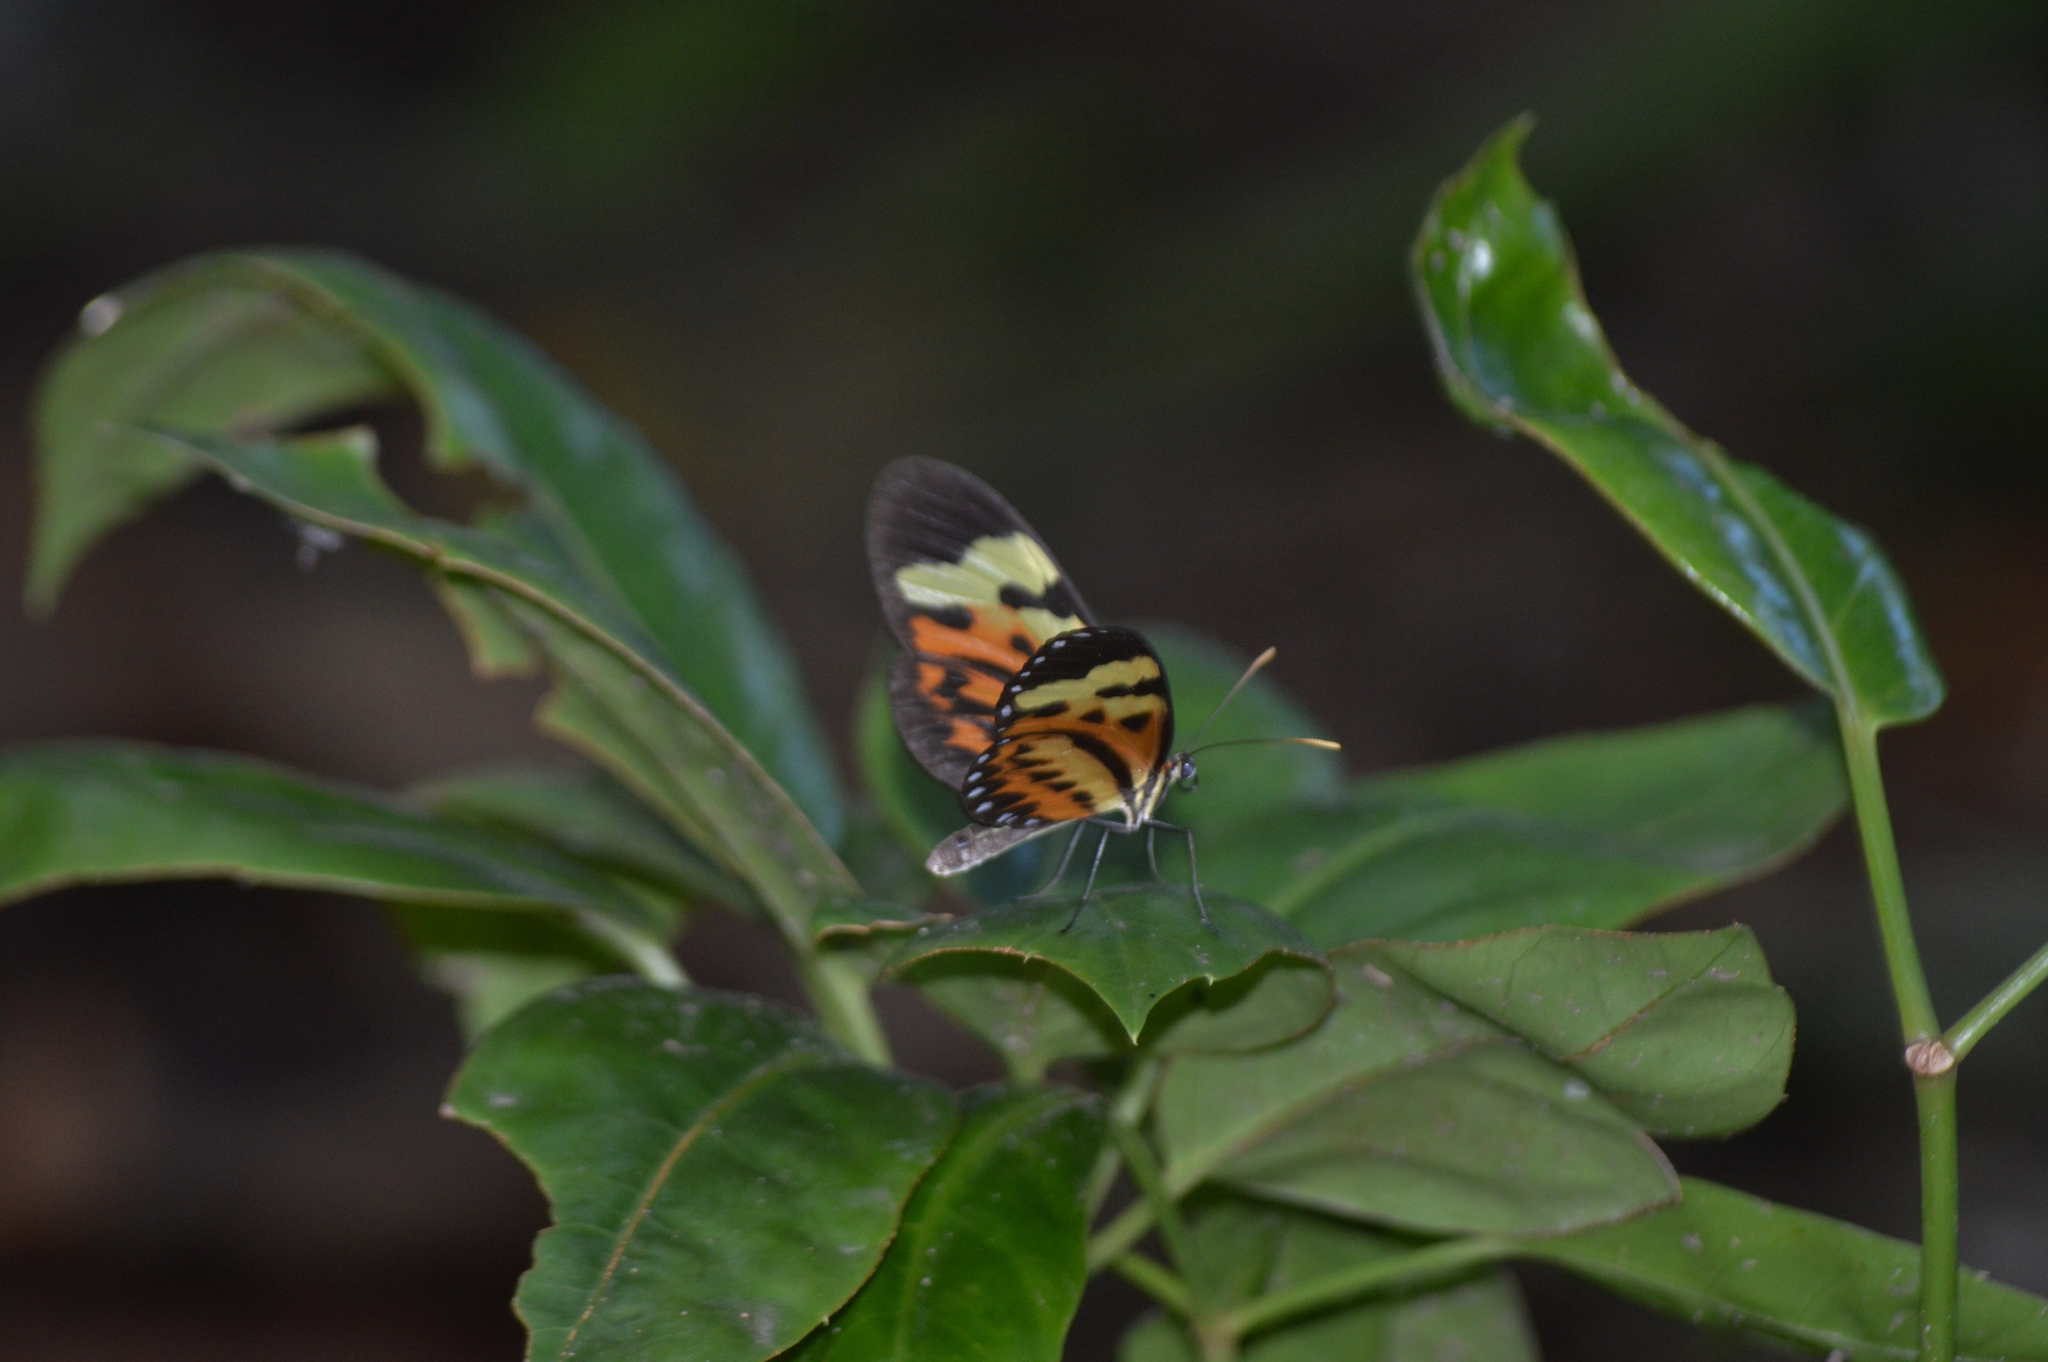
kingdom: Animalia
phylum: Arthropoda
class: Insecta
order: Lepidoptera
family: Nymphalidae
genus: Mechanitis
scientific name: Mechanitis polymnia
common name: Disturbed tigerwing
